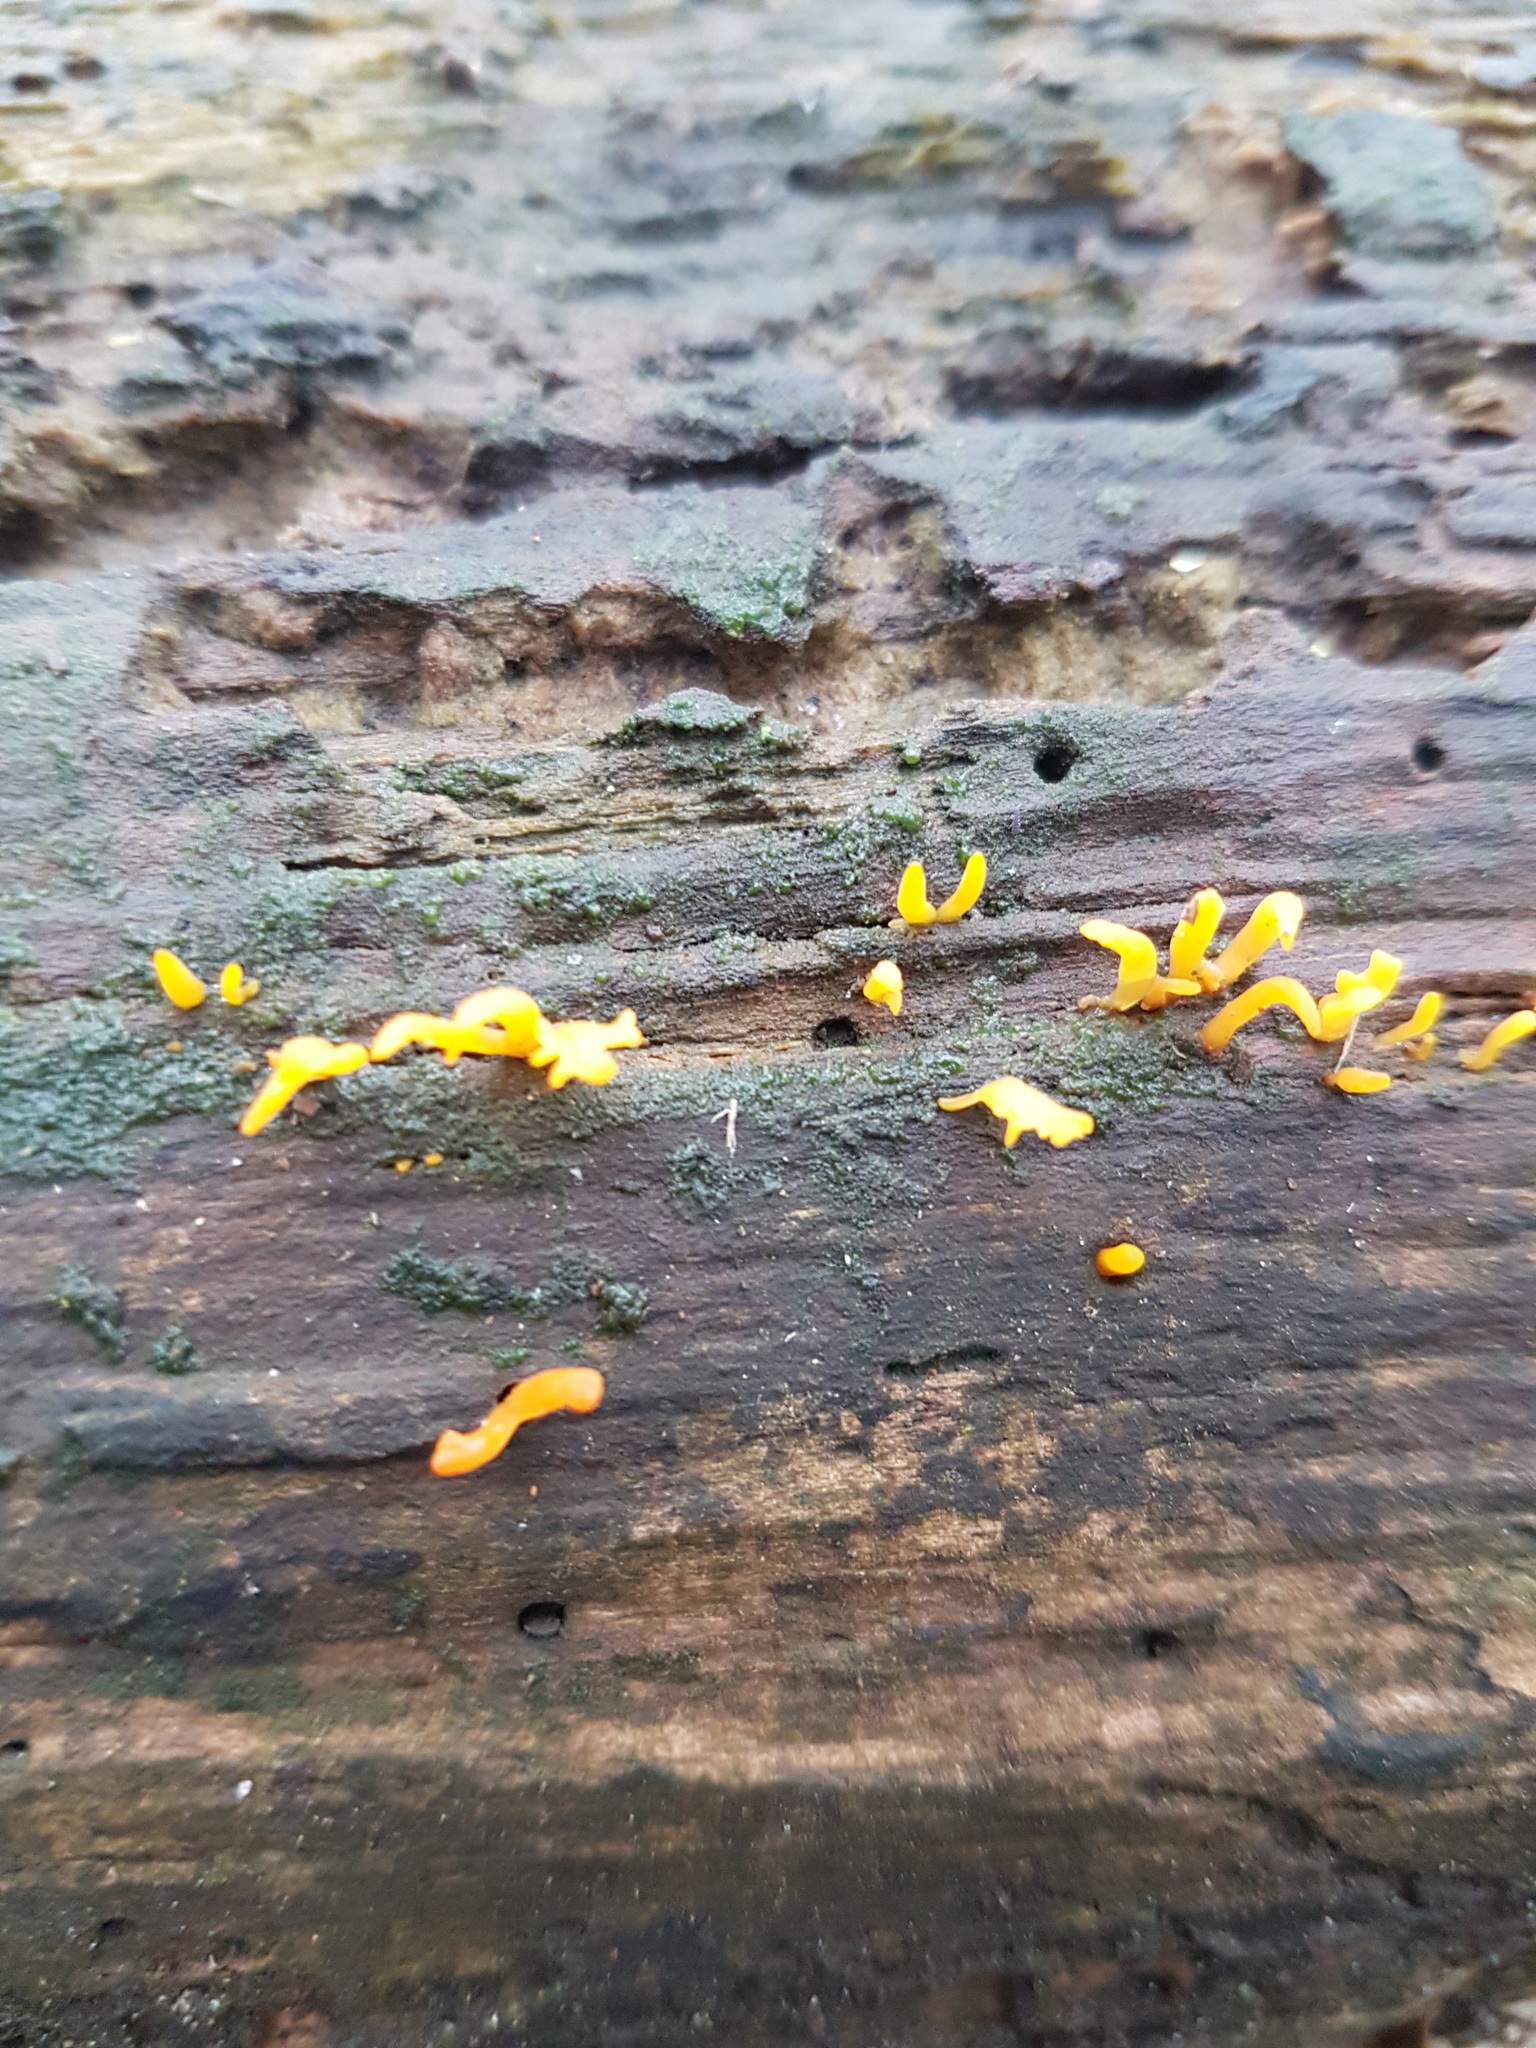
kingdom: Fungi
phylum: Basidiomycota
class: Dacrymycetes
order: Dacrymycetales
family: Dacrymycetaceae
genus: Calocera
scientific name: Calocera cornea
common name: Small stagshorn
